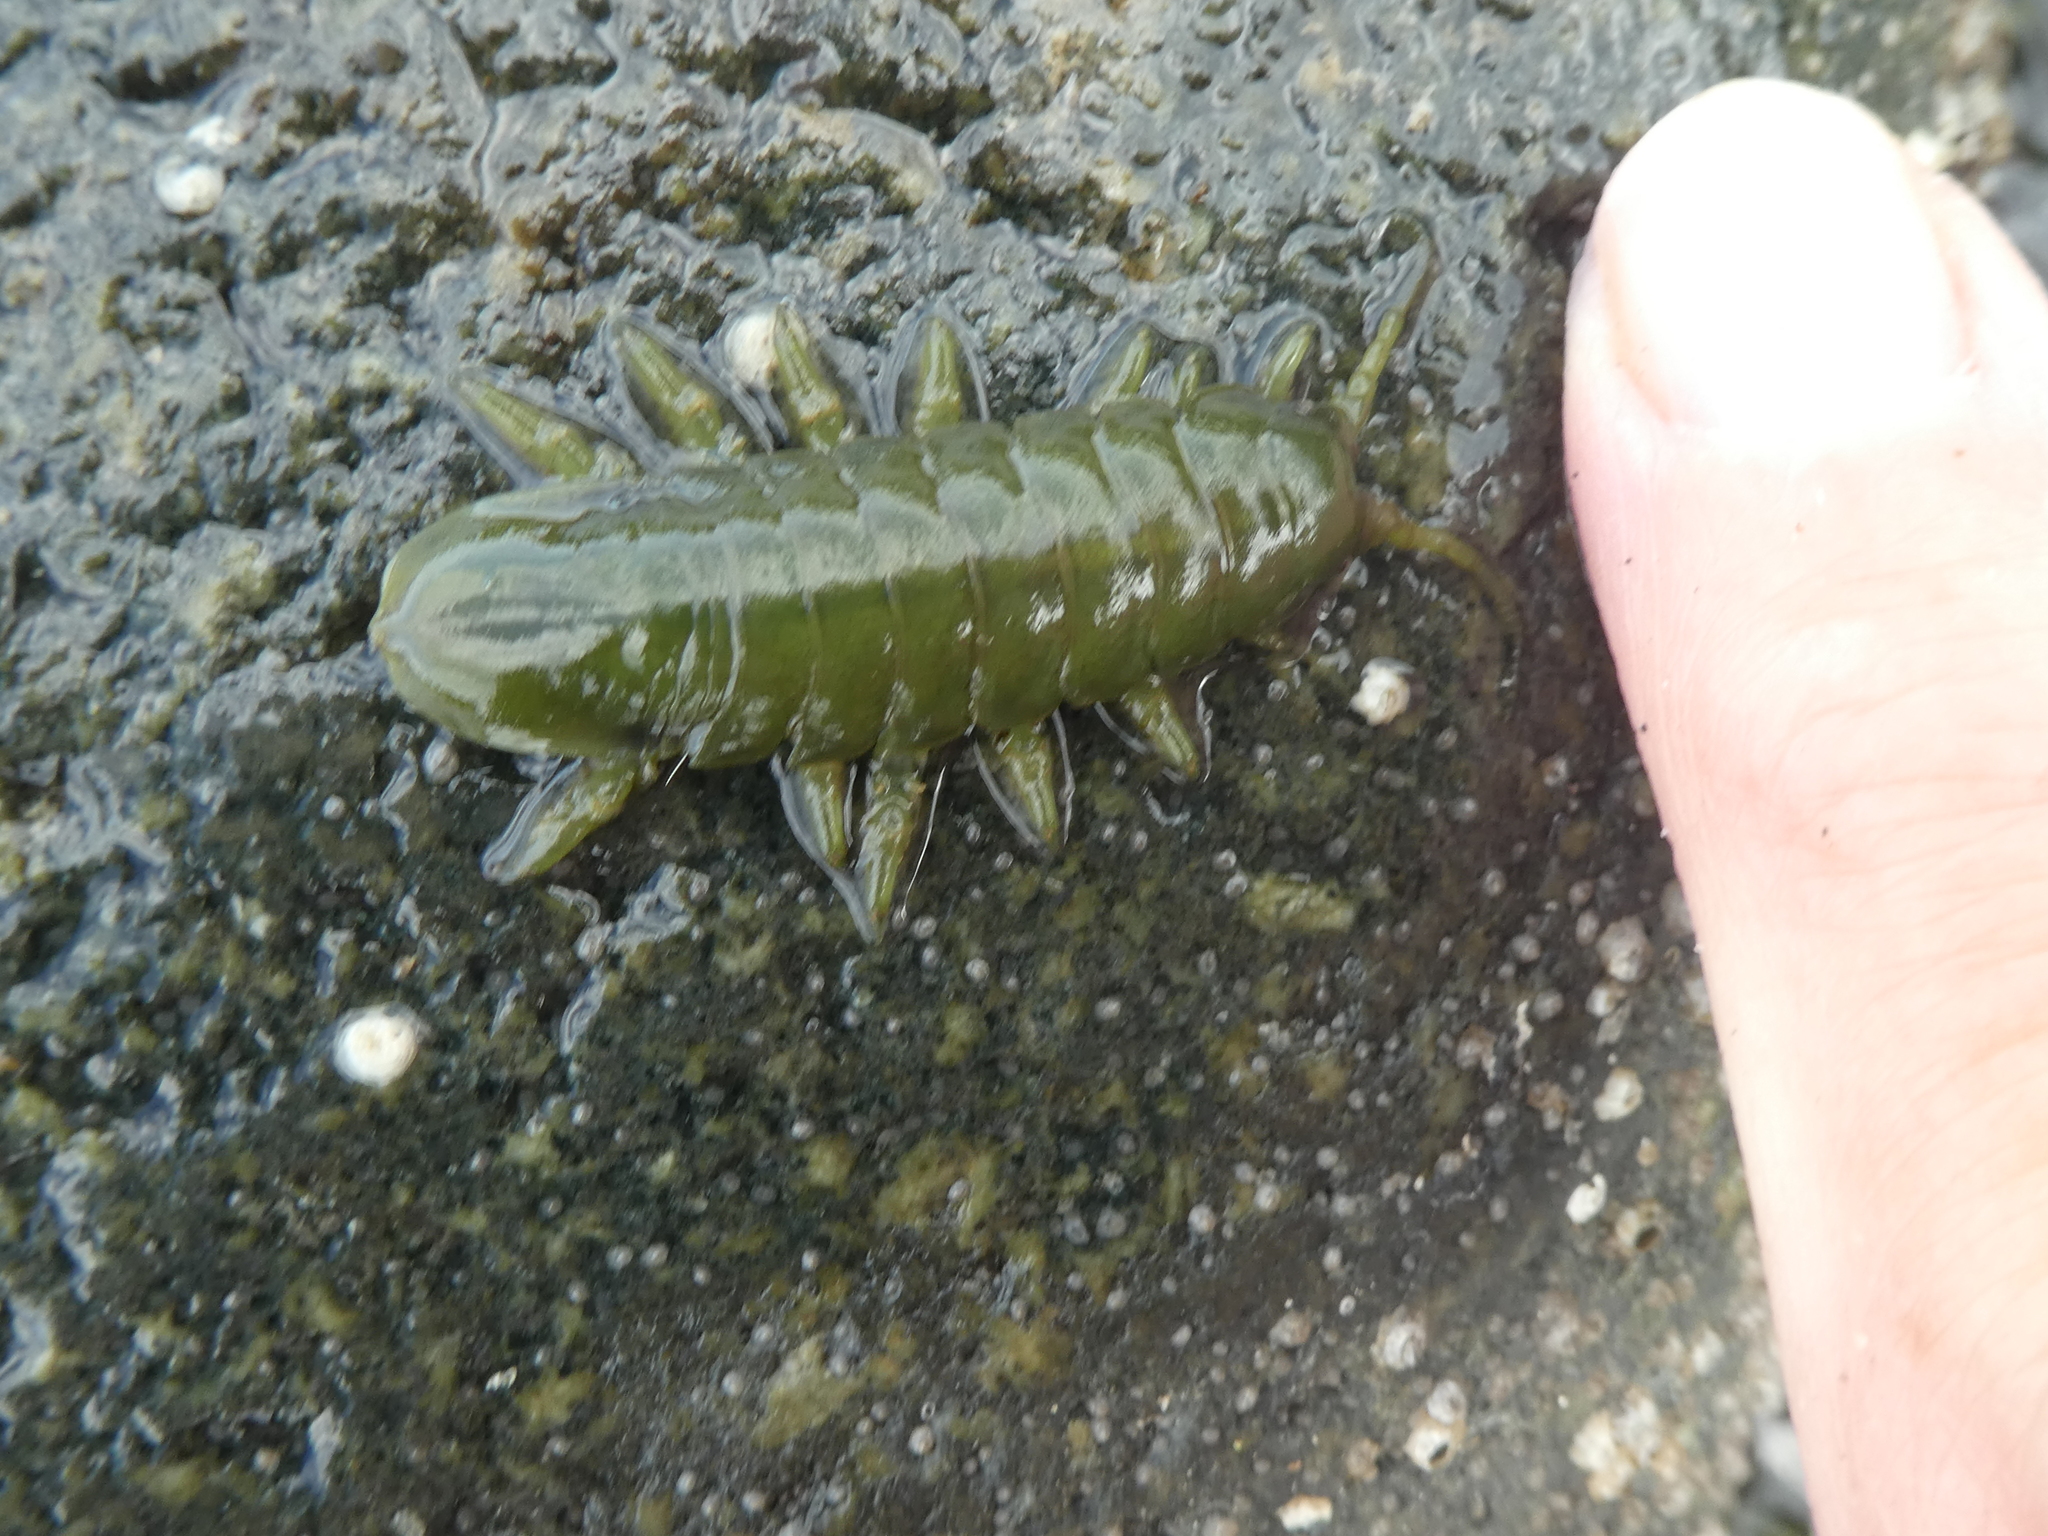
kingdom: Animalia
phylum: Arthropoda
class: Malacostraca
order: Isopoda
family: Idoteidae
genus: Pentidotea
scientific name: Pentidotea wosnesenskii
